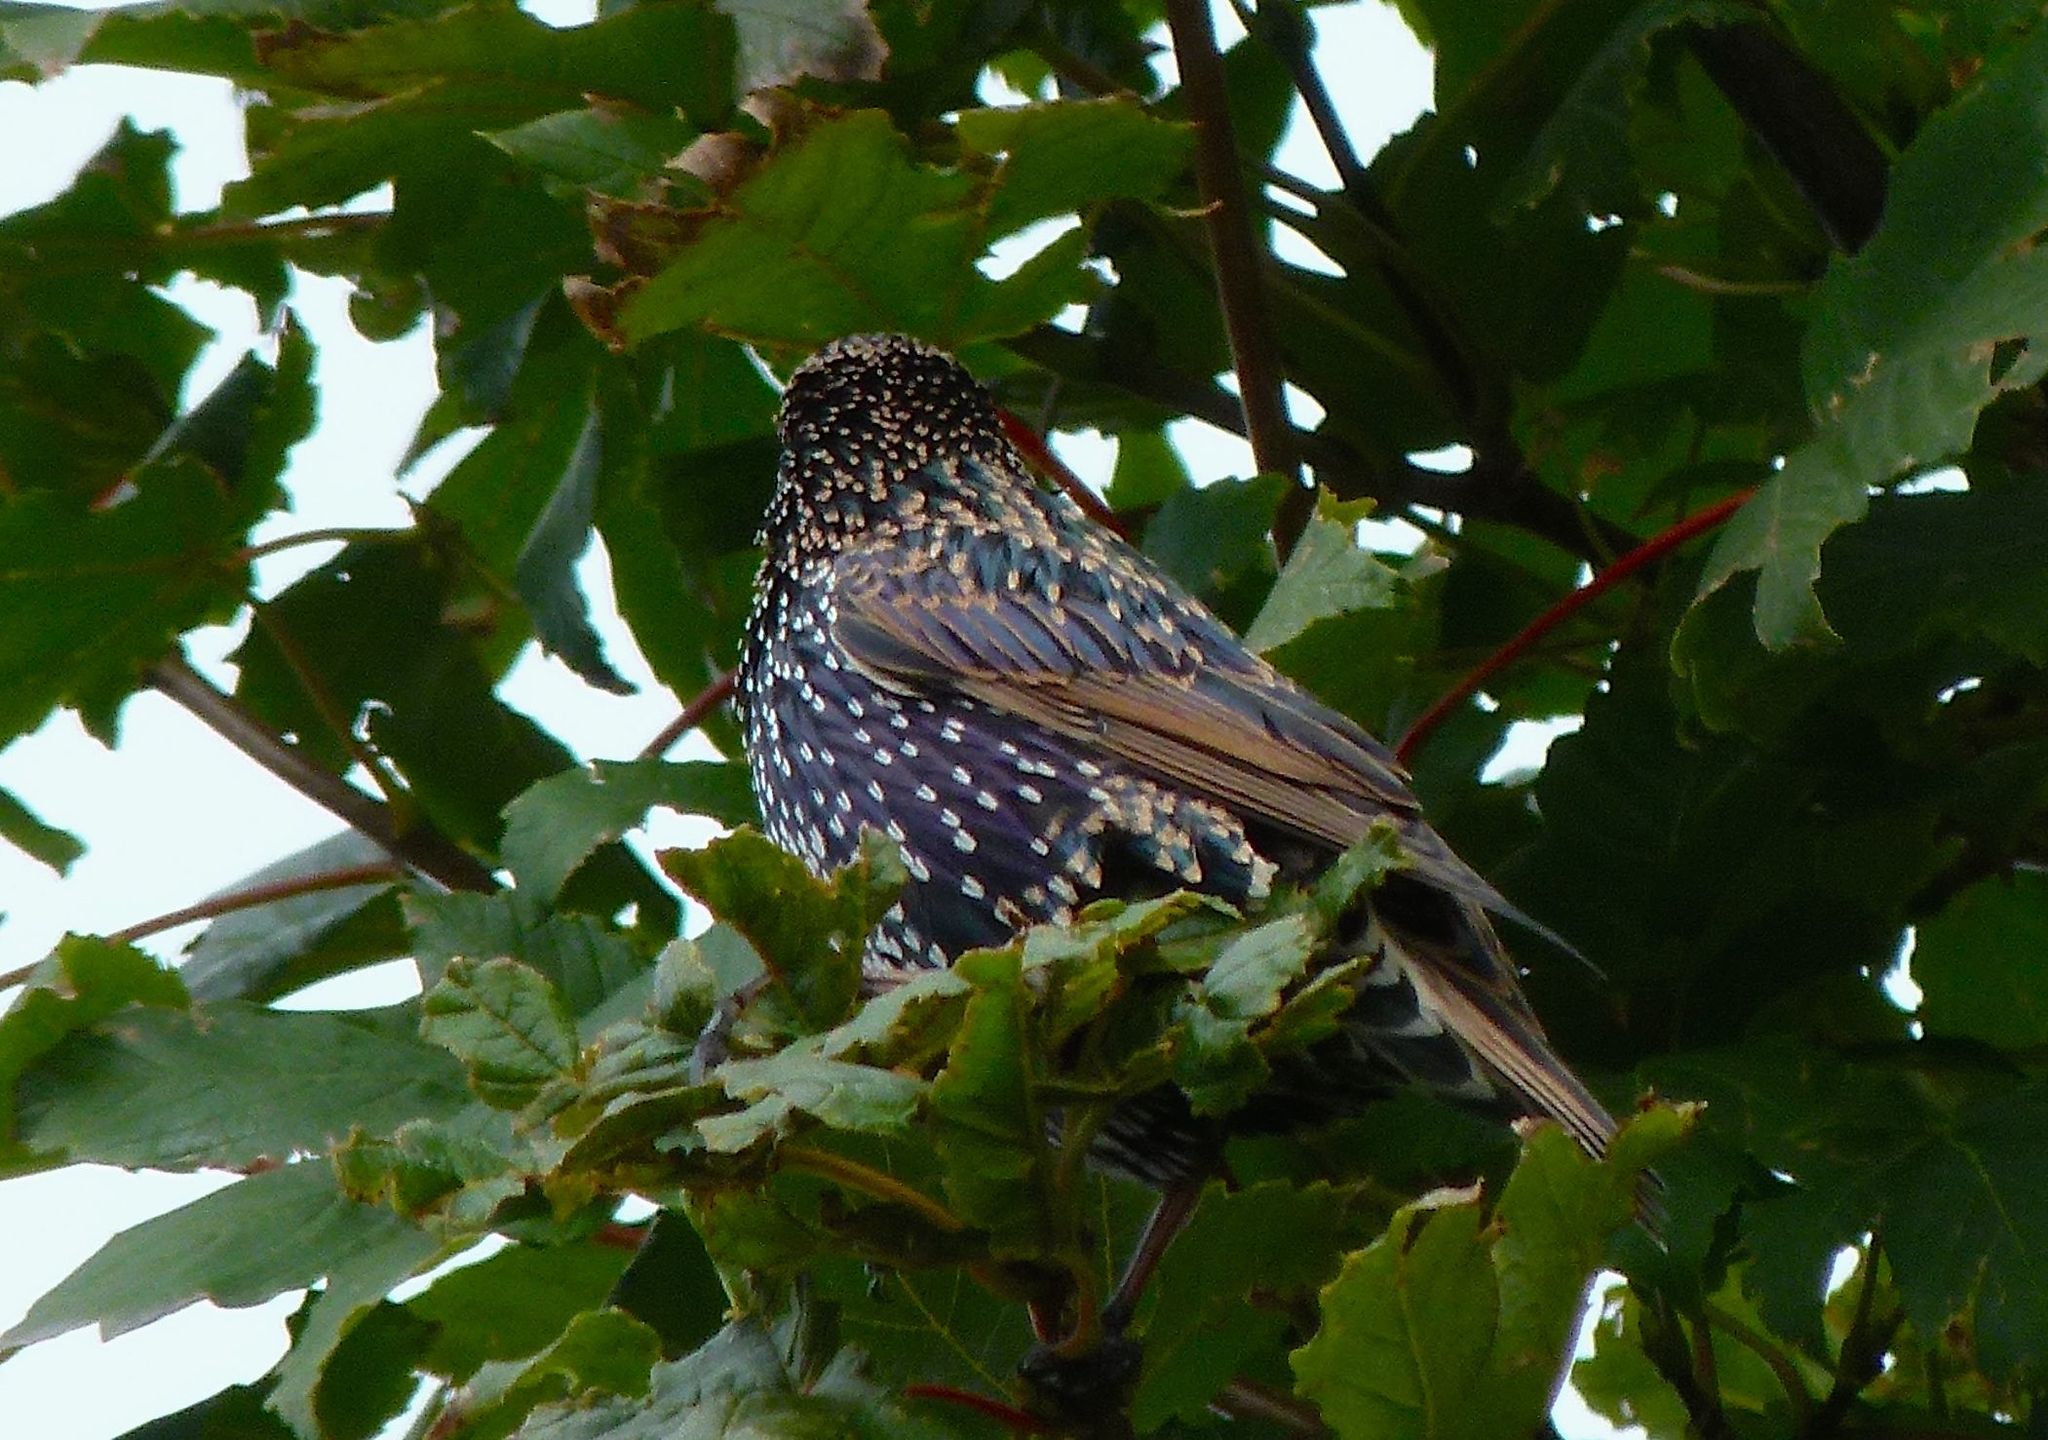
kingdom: Animalia
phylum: Chordata
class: Aves
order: Passeriformes
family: Sturnidae
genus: Sturnus
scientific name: Sturnus vulgaris
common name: Common starling
